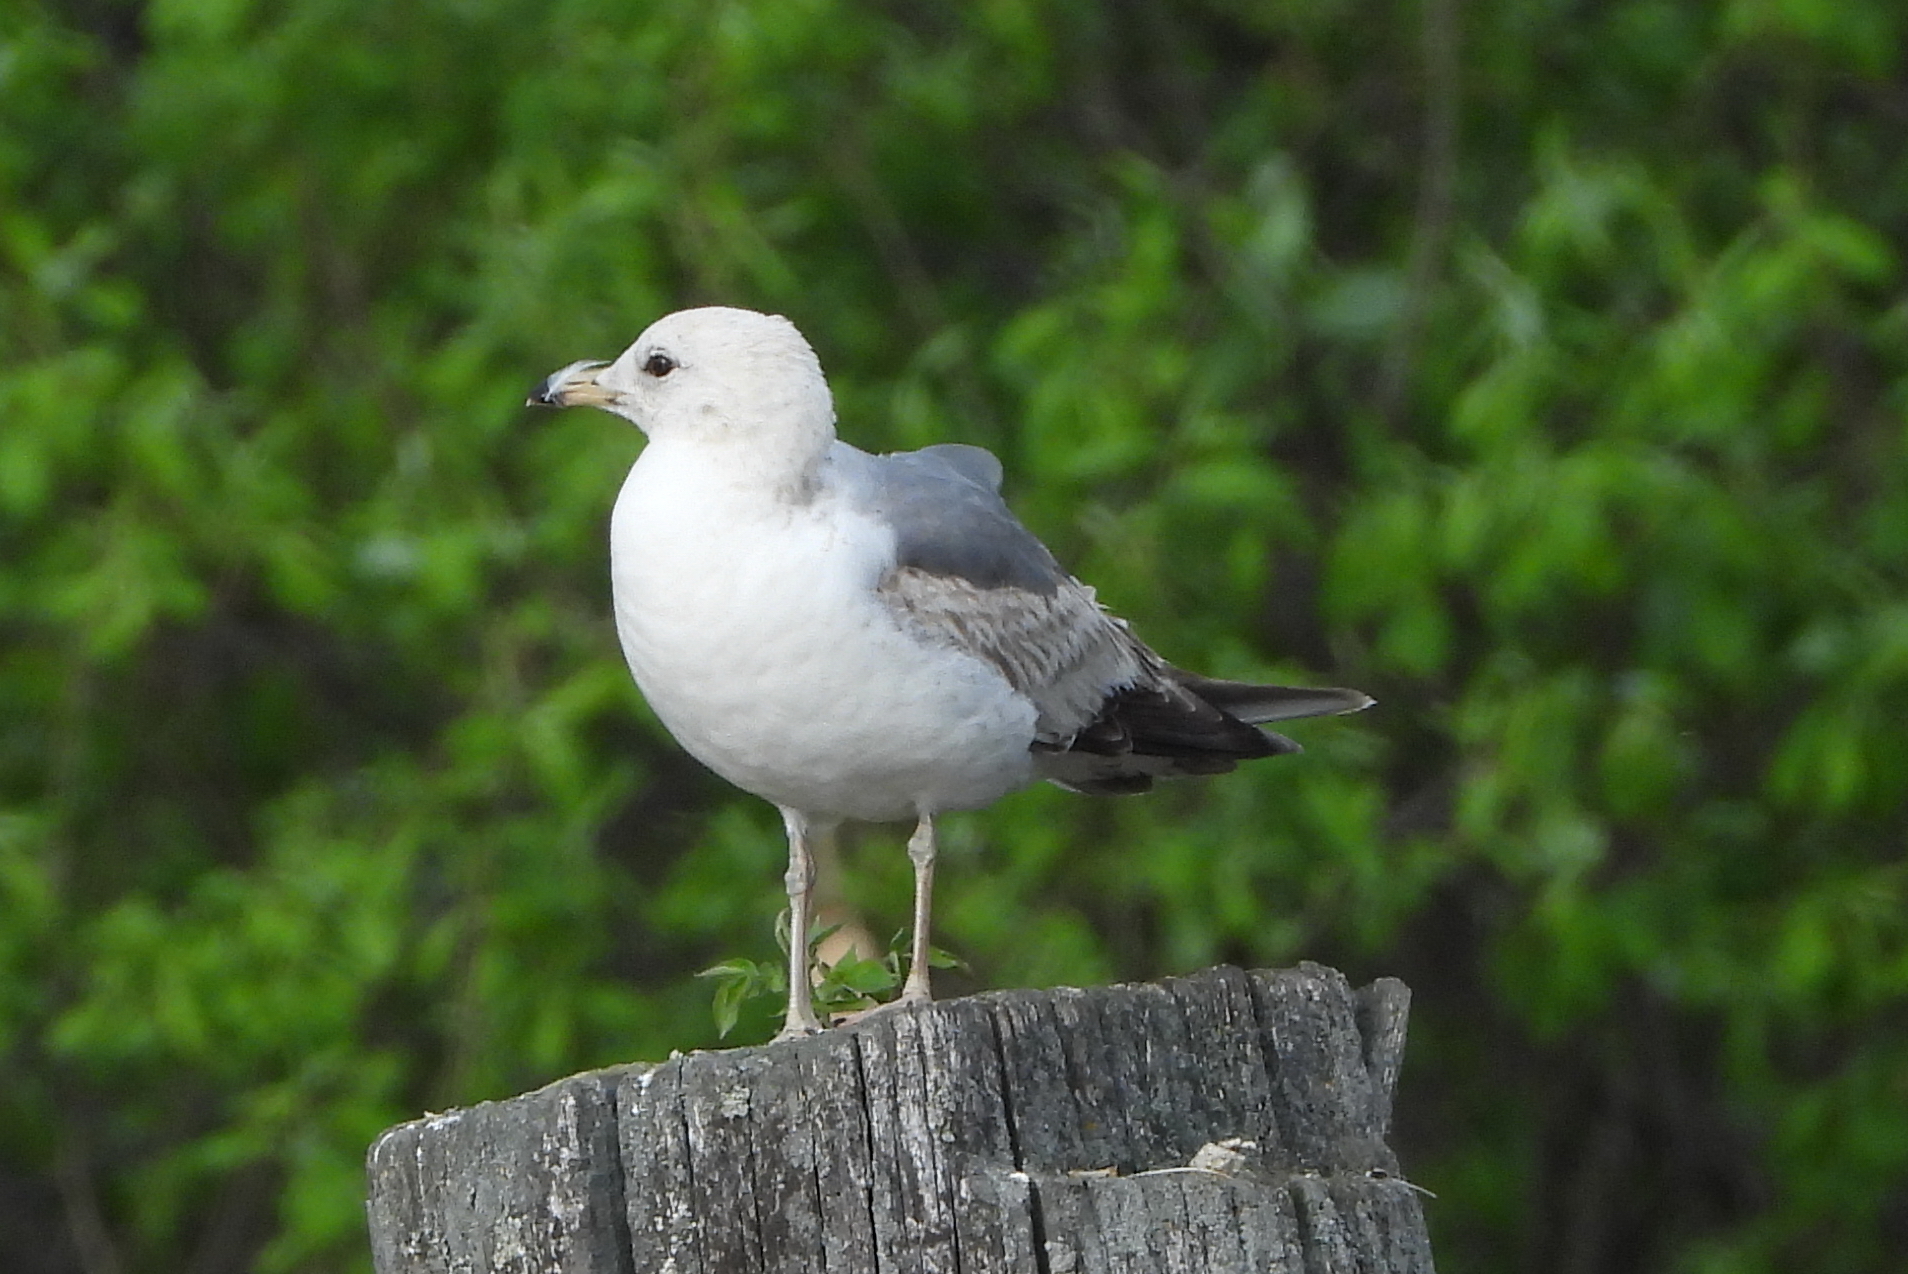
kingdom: Animalia
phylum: Chordata
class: Aves
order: Charadriiformes
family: Laridae
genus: Larus
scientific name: Larus canus
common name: Mew gull
